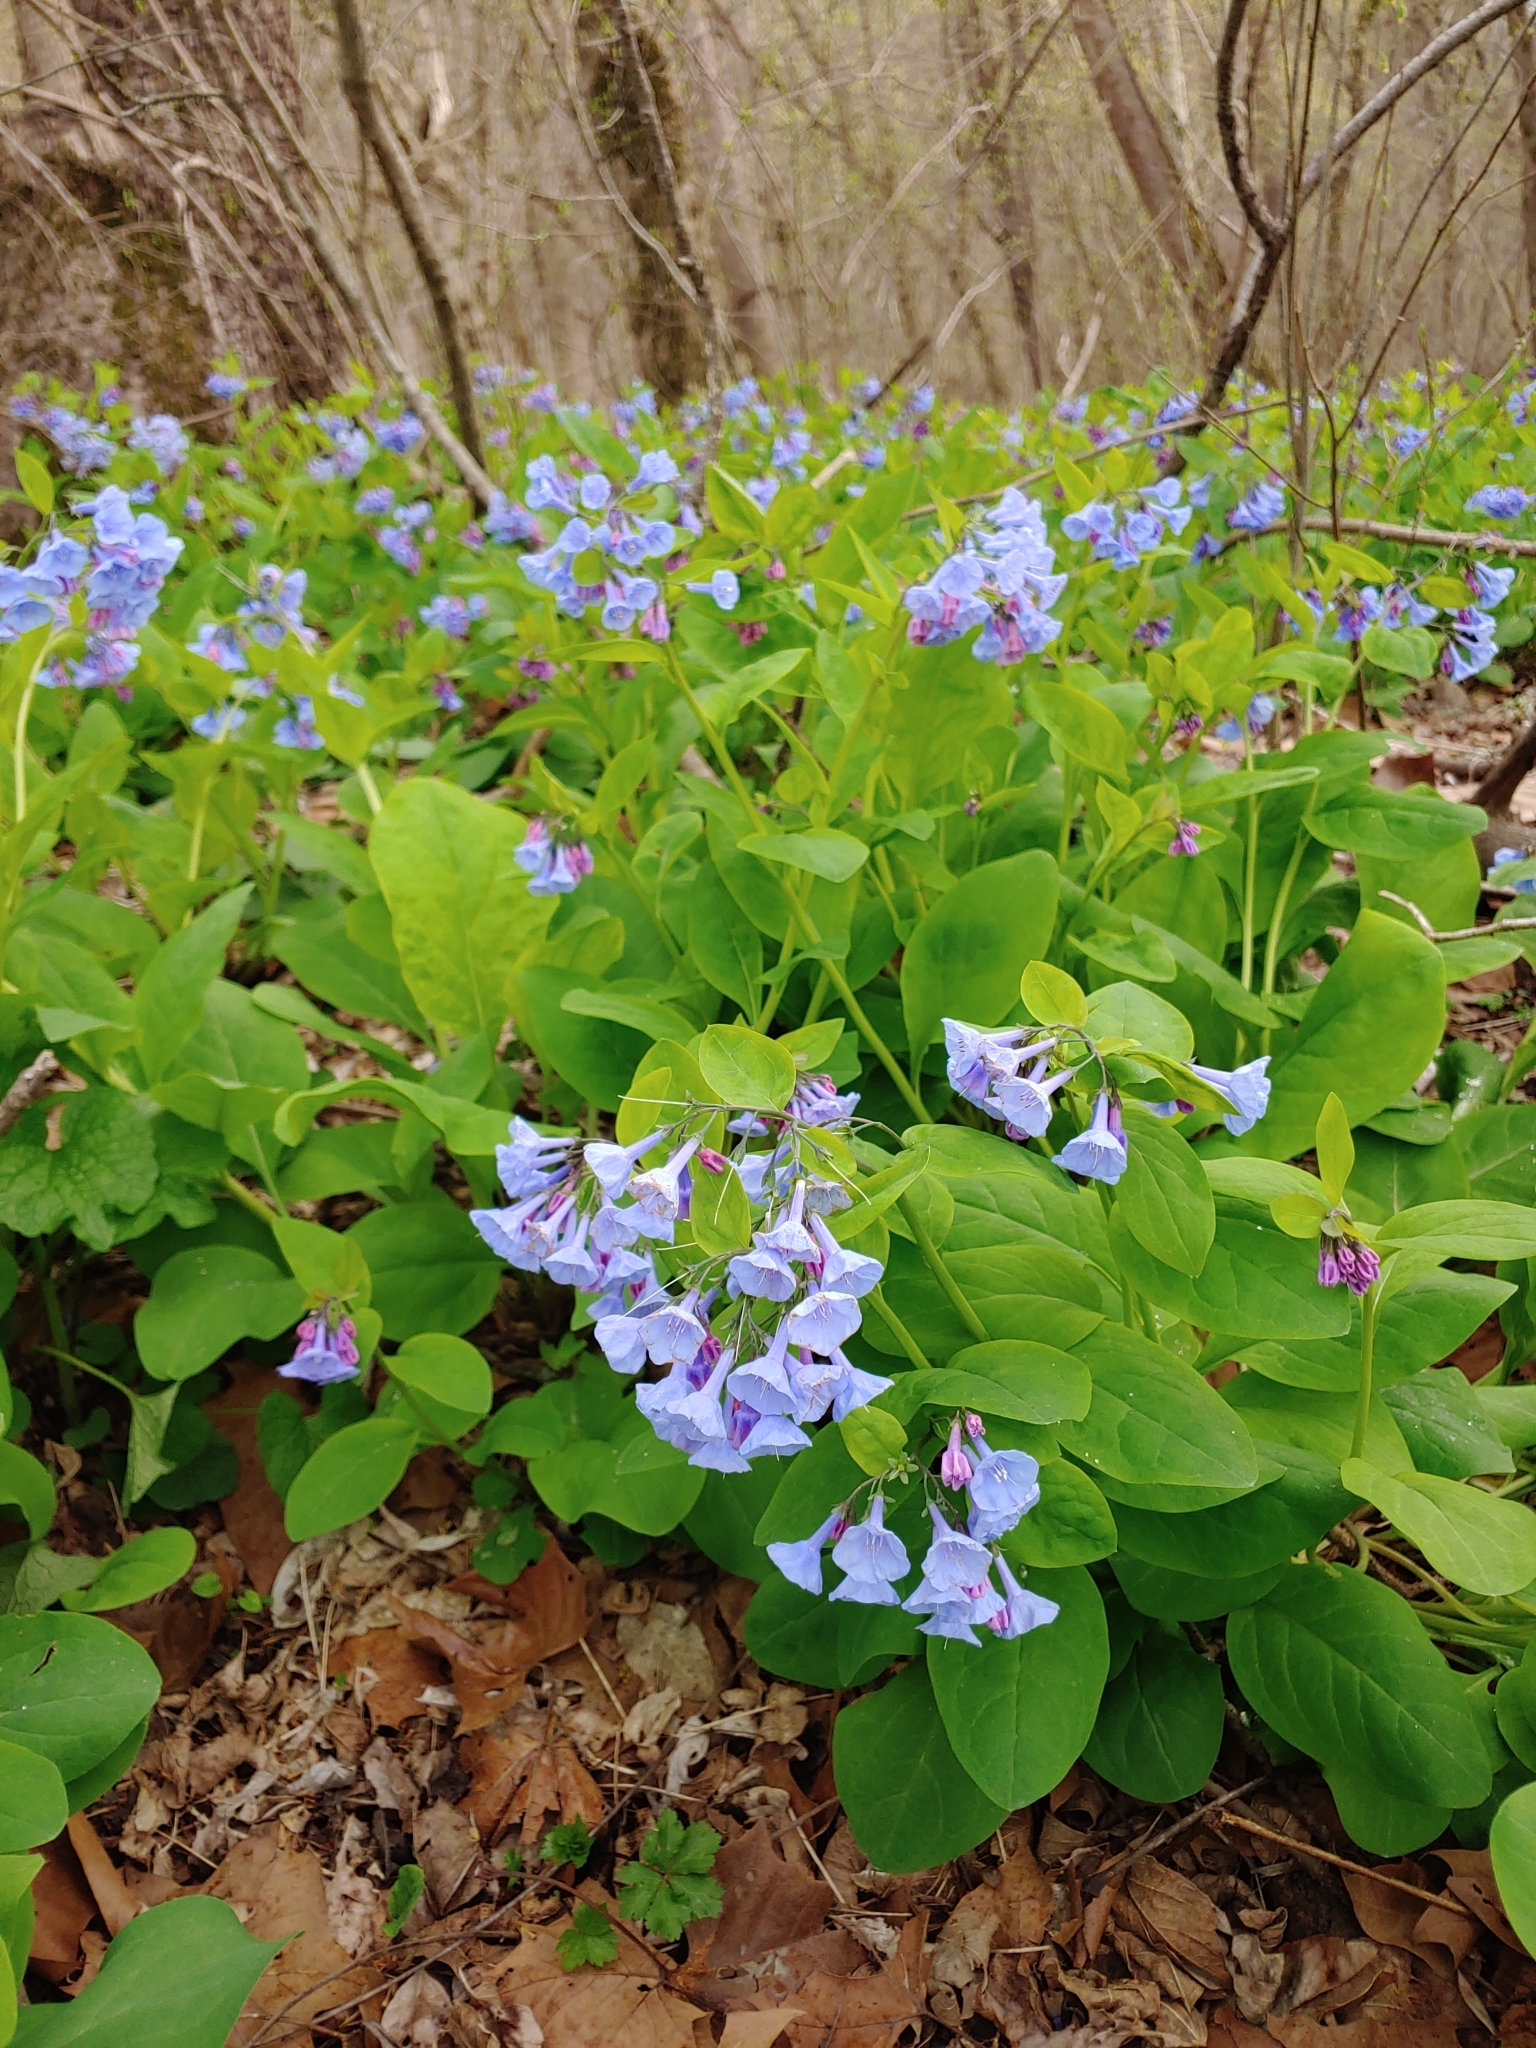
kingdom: Plantae
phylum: Tracheophyta
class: Magnoliopsida
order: Boraginales
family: Boraginaceae
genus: Mertensia
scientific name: Mertensia virginica
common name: Virginia bluebells
